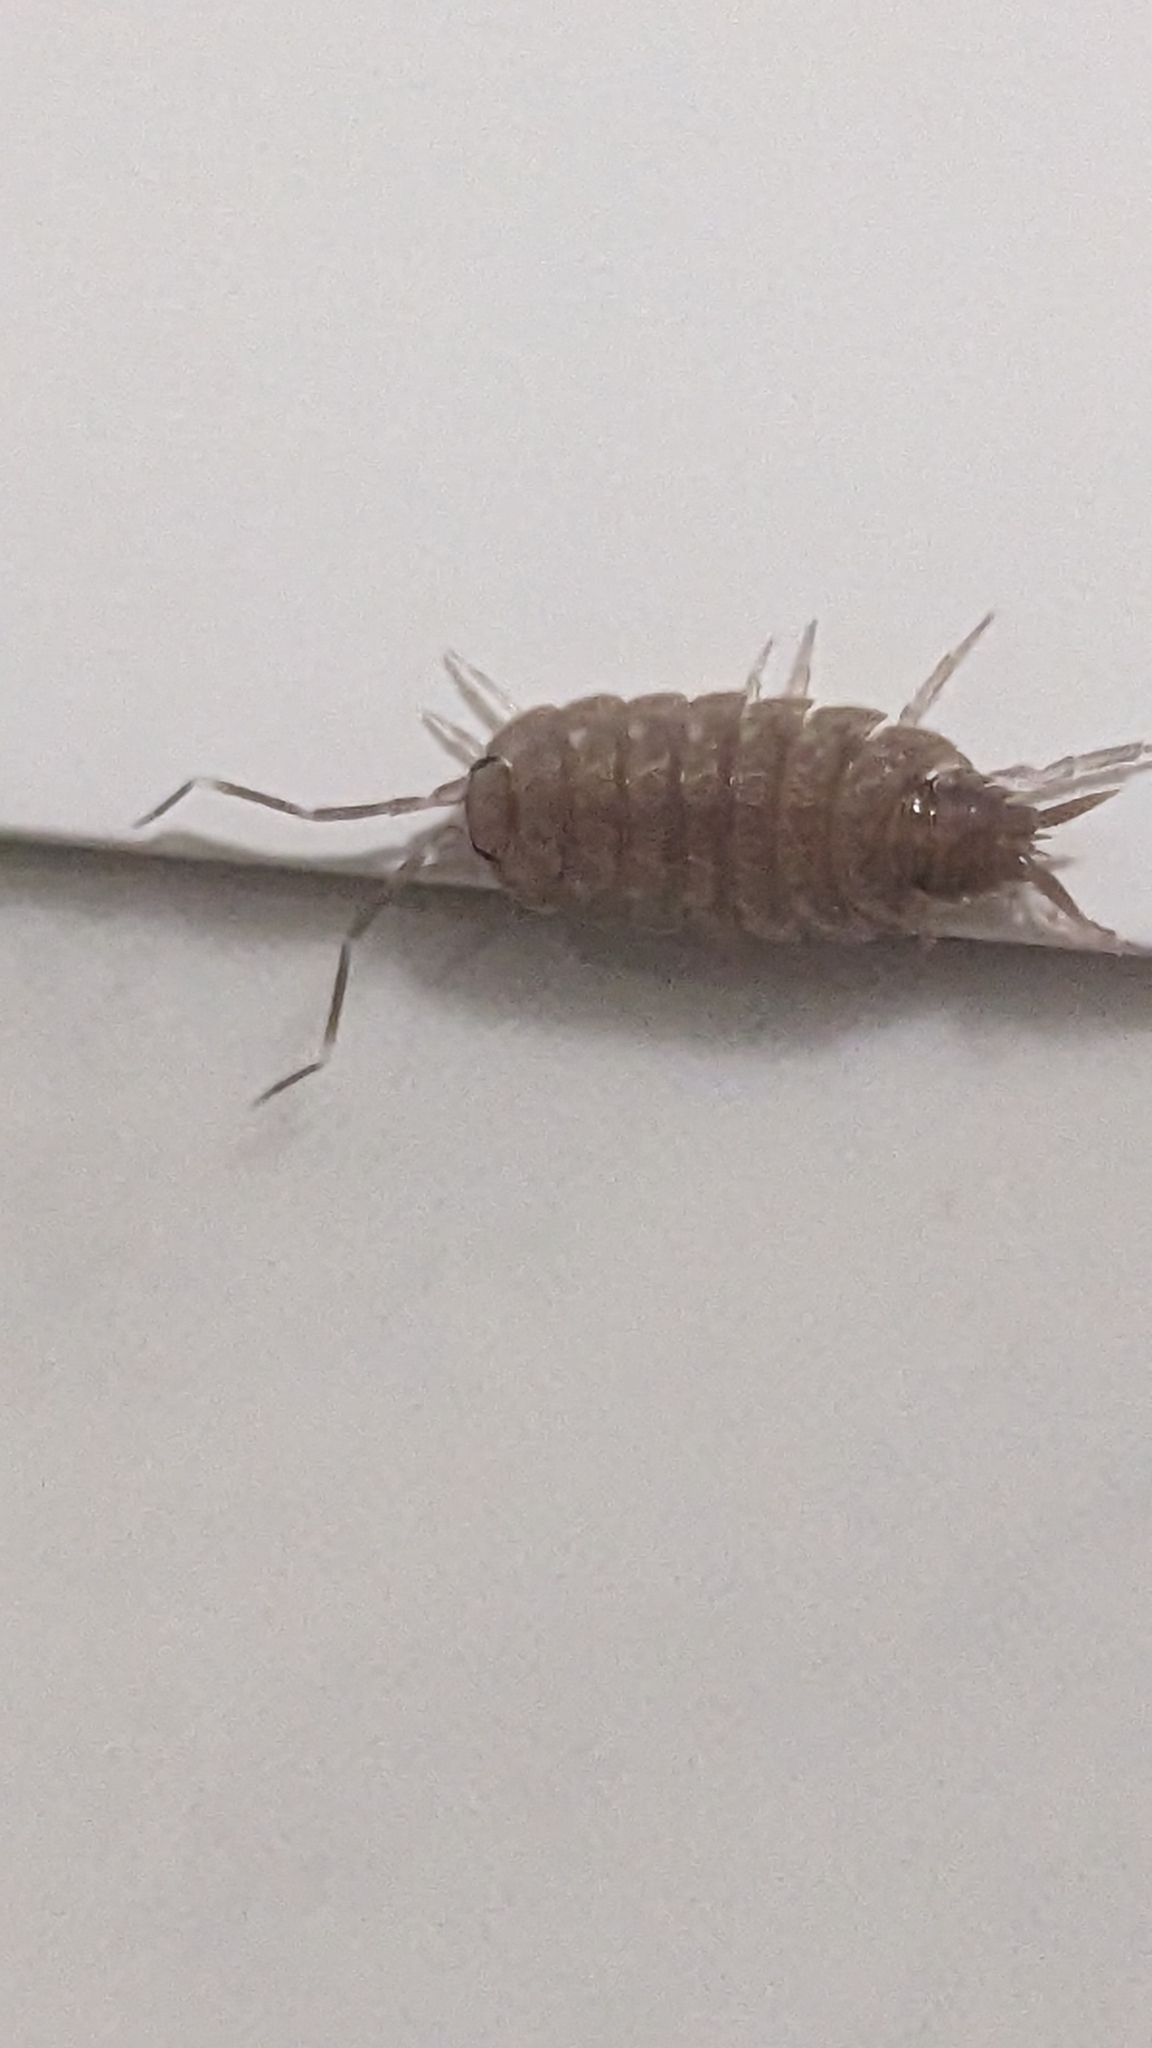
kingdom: Animalia
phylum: Arthropoda
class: Malacostraca
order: Isopoda
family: Porcellionidae
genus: Porcellionides
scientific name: Porcellionides pruinosus
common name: Plum woodlouse
